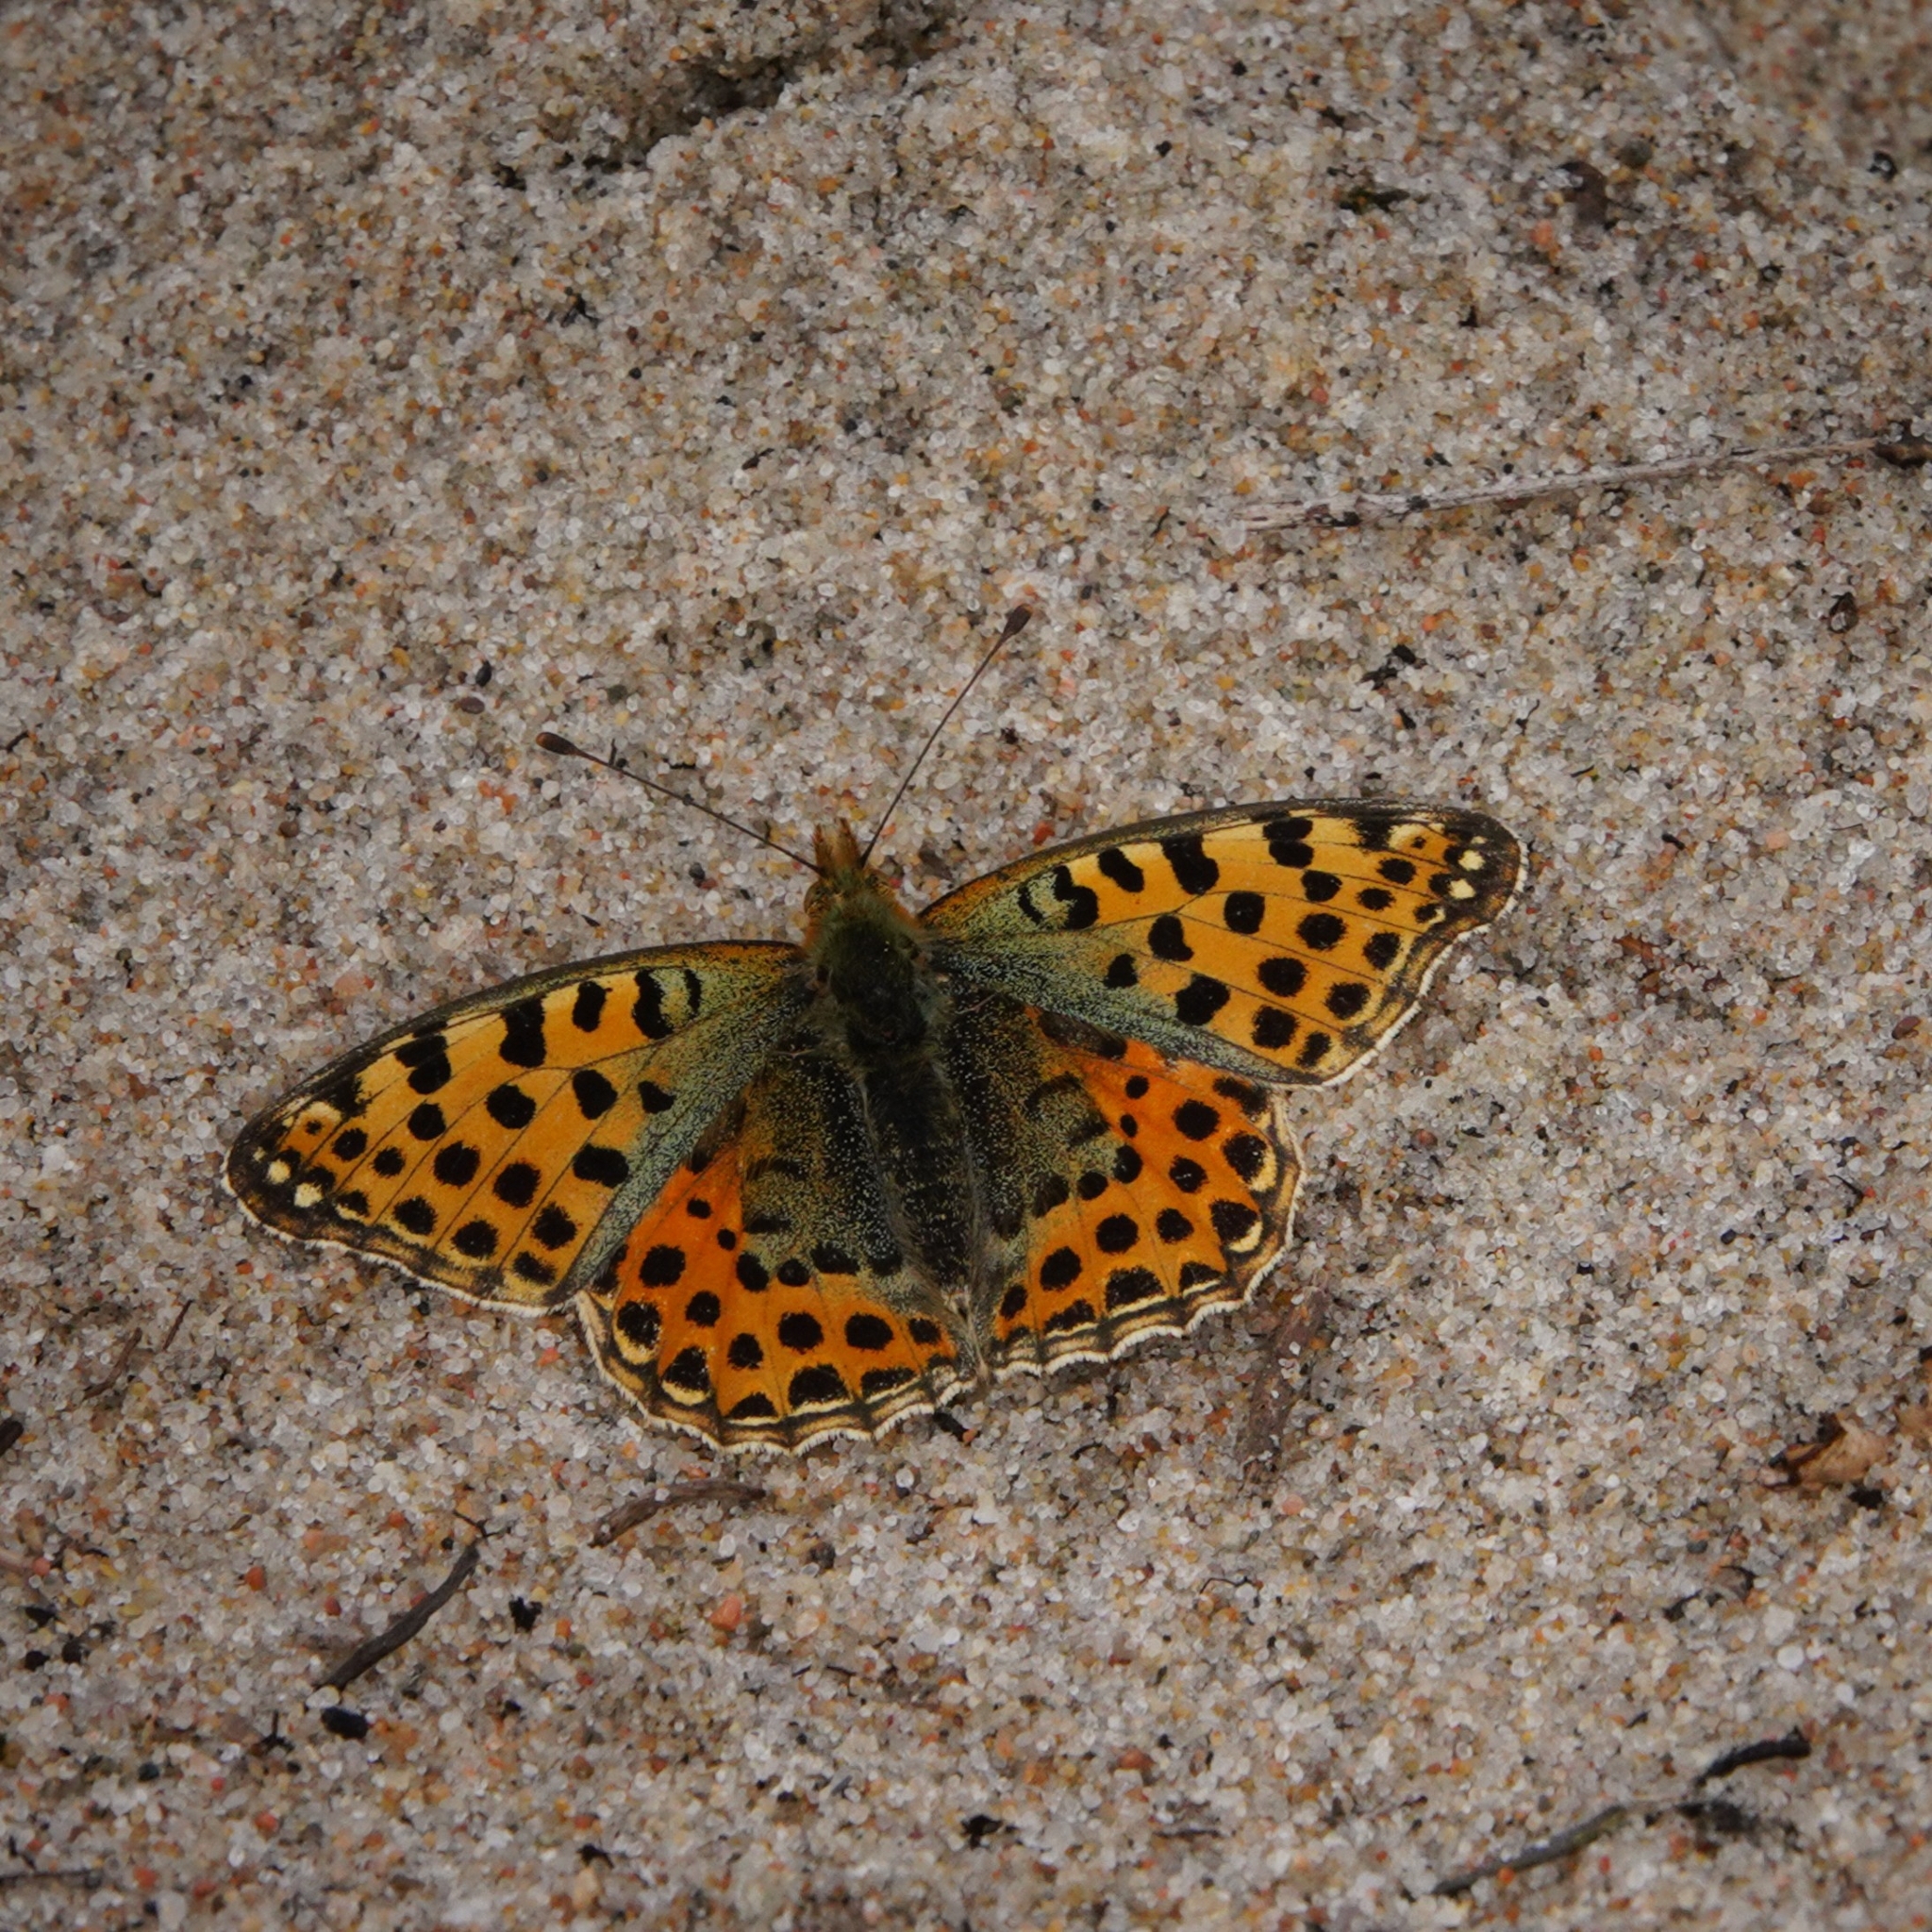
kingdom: Animalia
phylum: Arthropoda
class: Insecta
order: Lepidoptera
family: Nymphalidae
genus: Issoria
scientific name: Issoria lathonia
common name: Queen of spain fritillary
